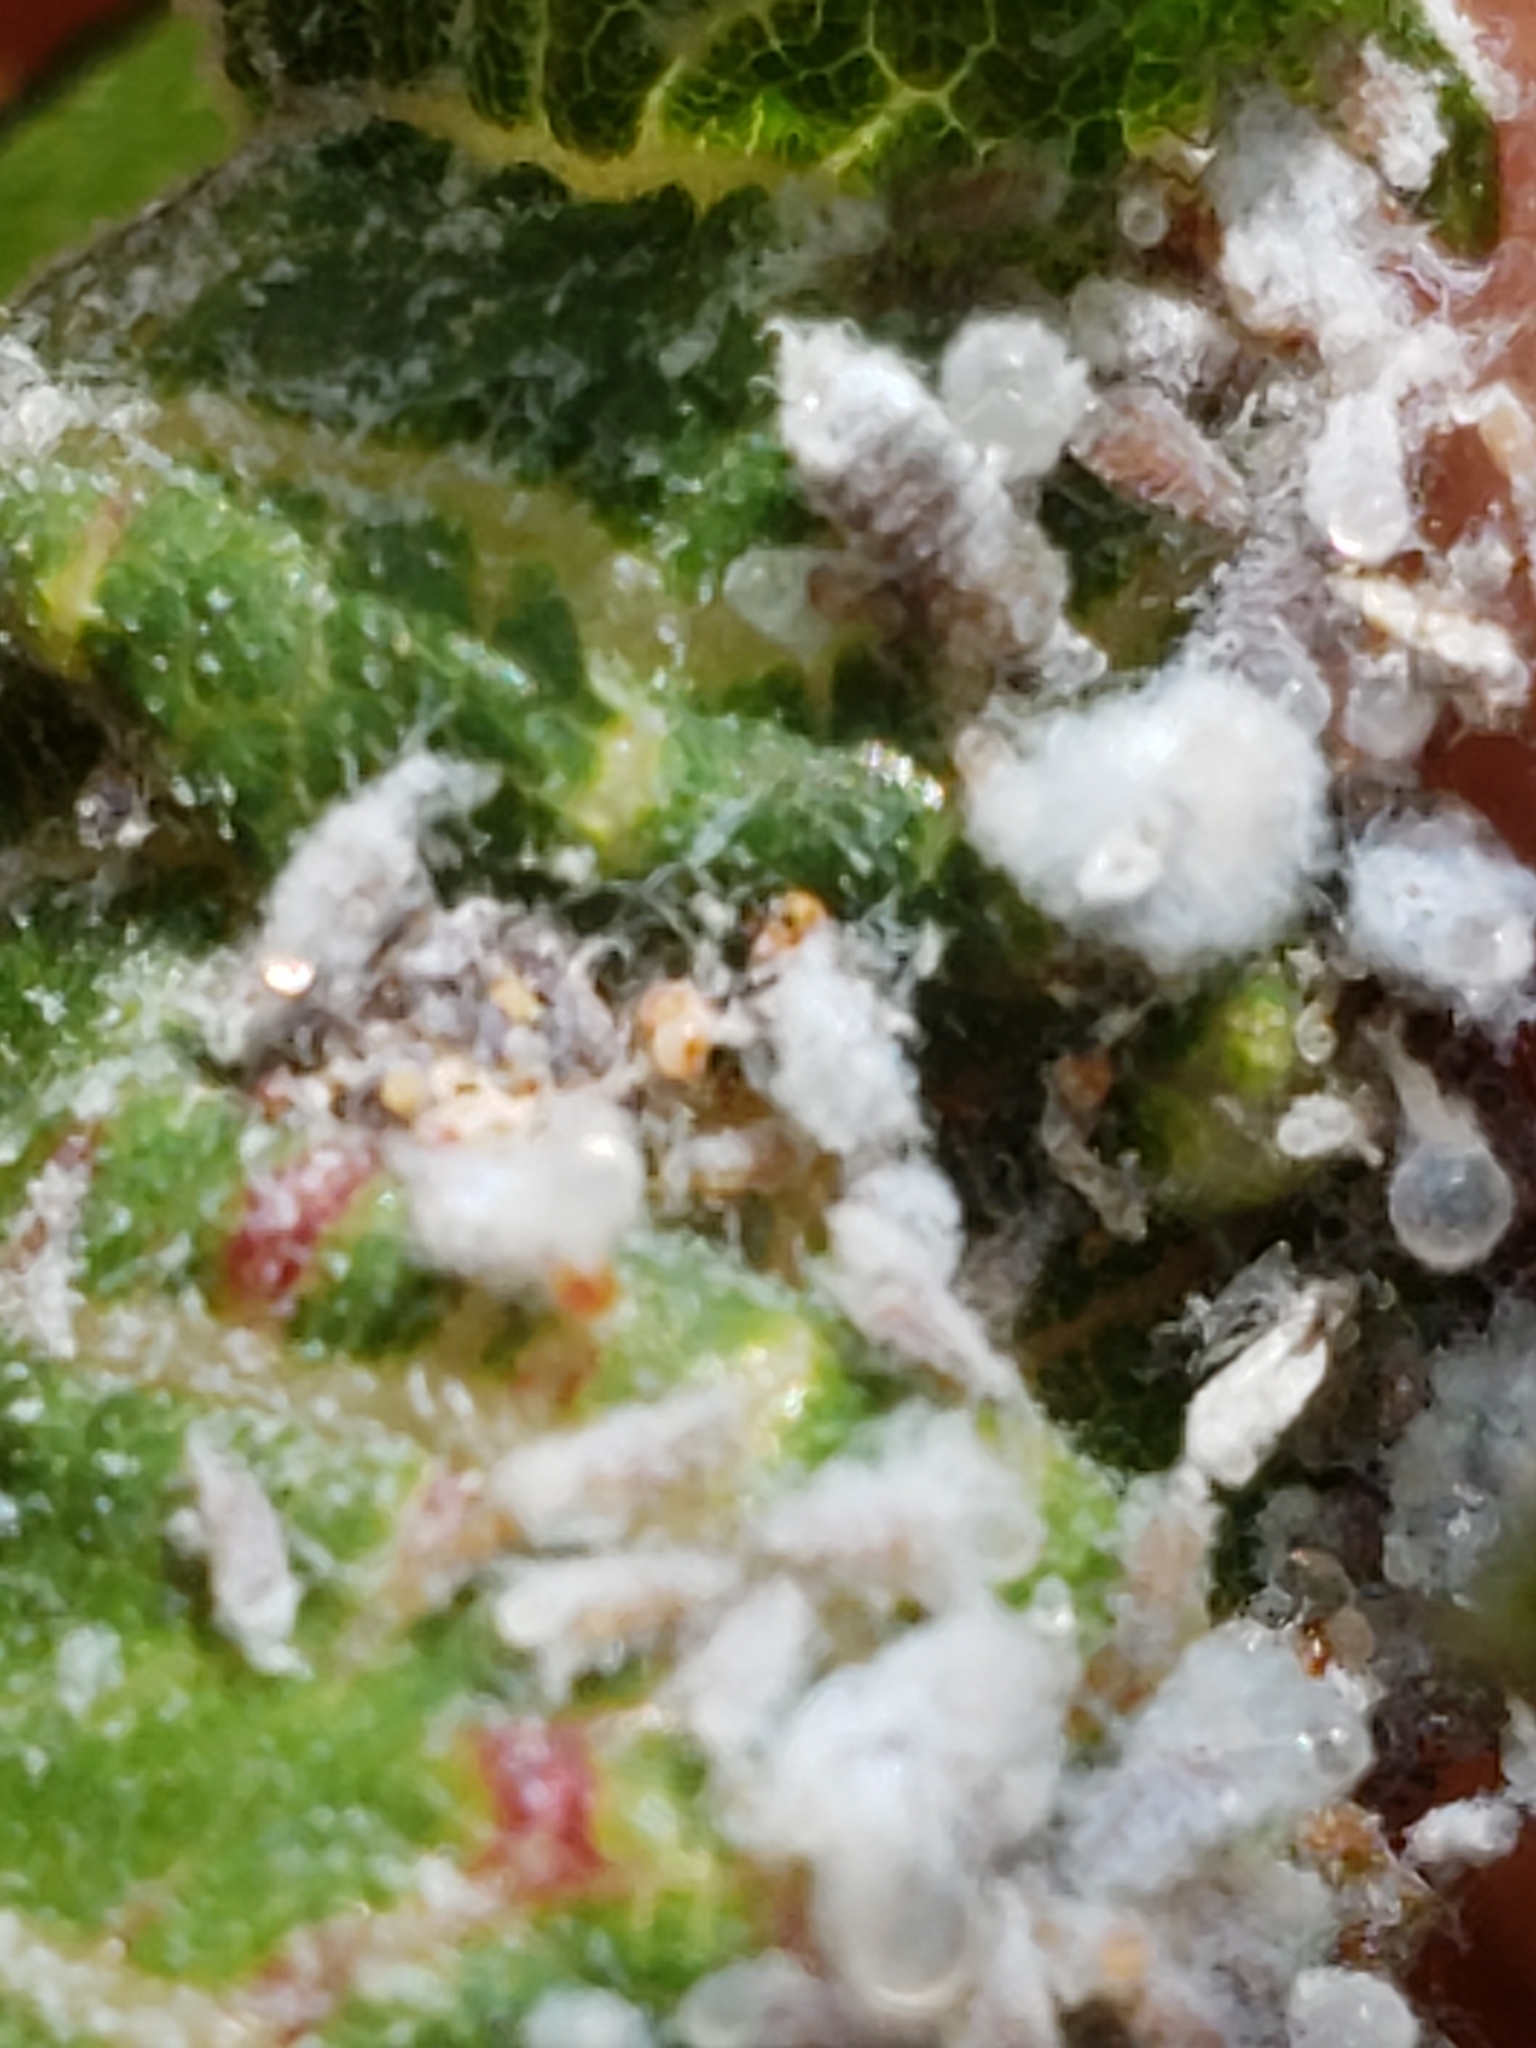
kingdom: Animalia
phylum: Arthropoda
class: Insecta
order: Hemiptera
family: Aphididae
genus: Eriosoma
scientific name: Eriosoma americanum
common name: Woolly elm aphid
